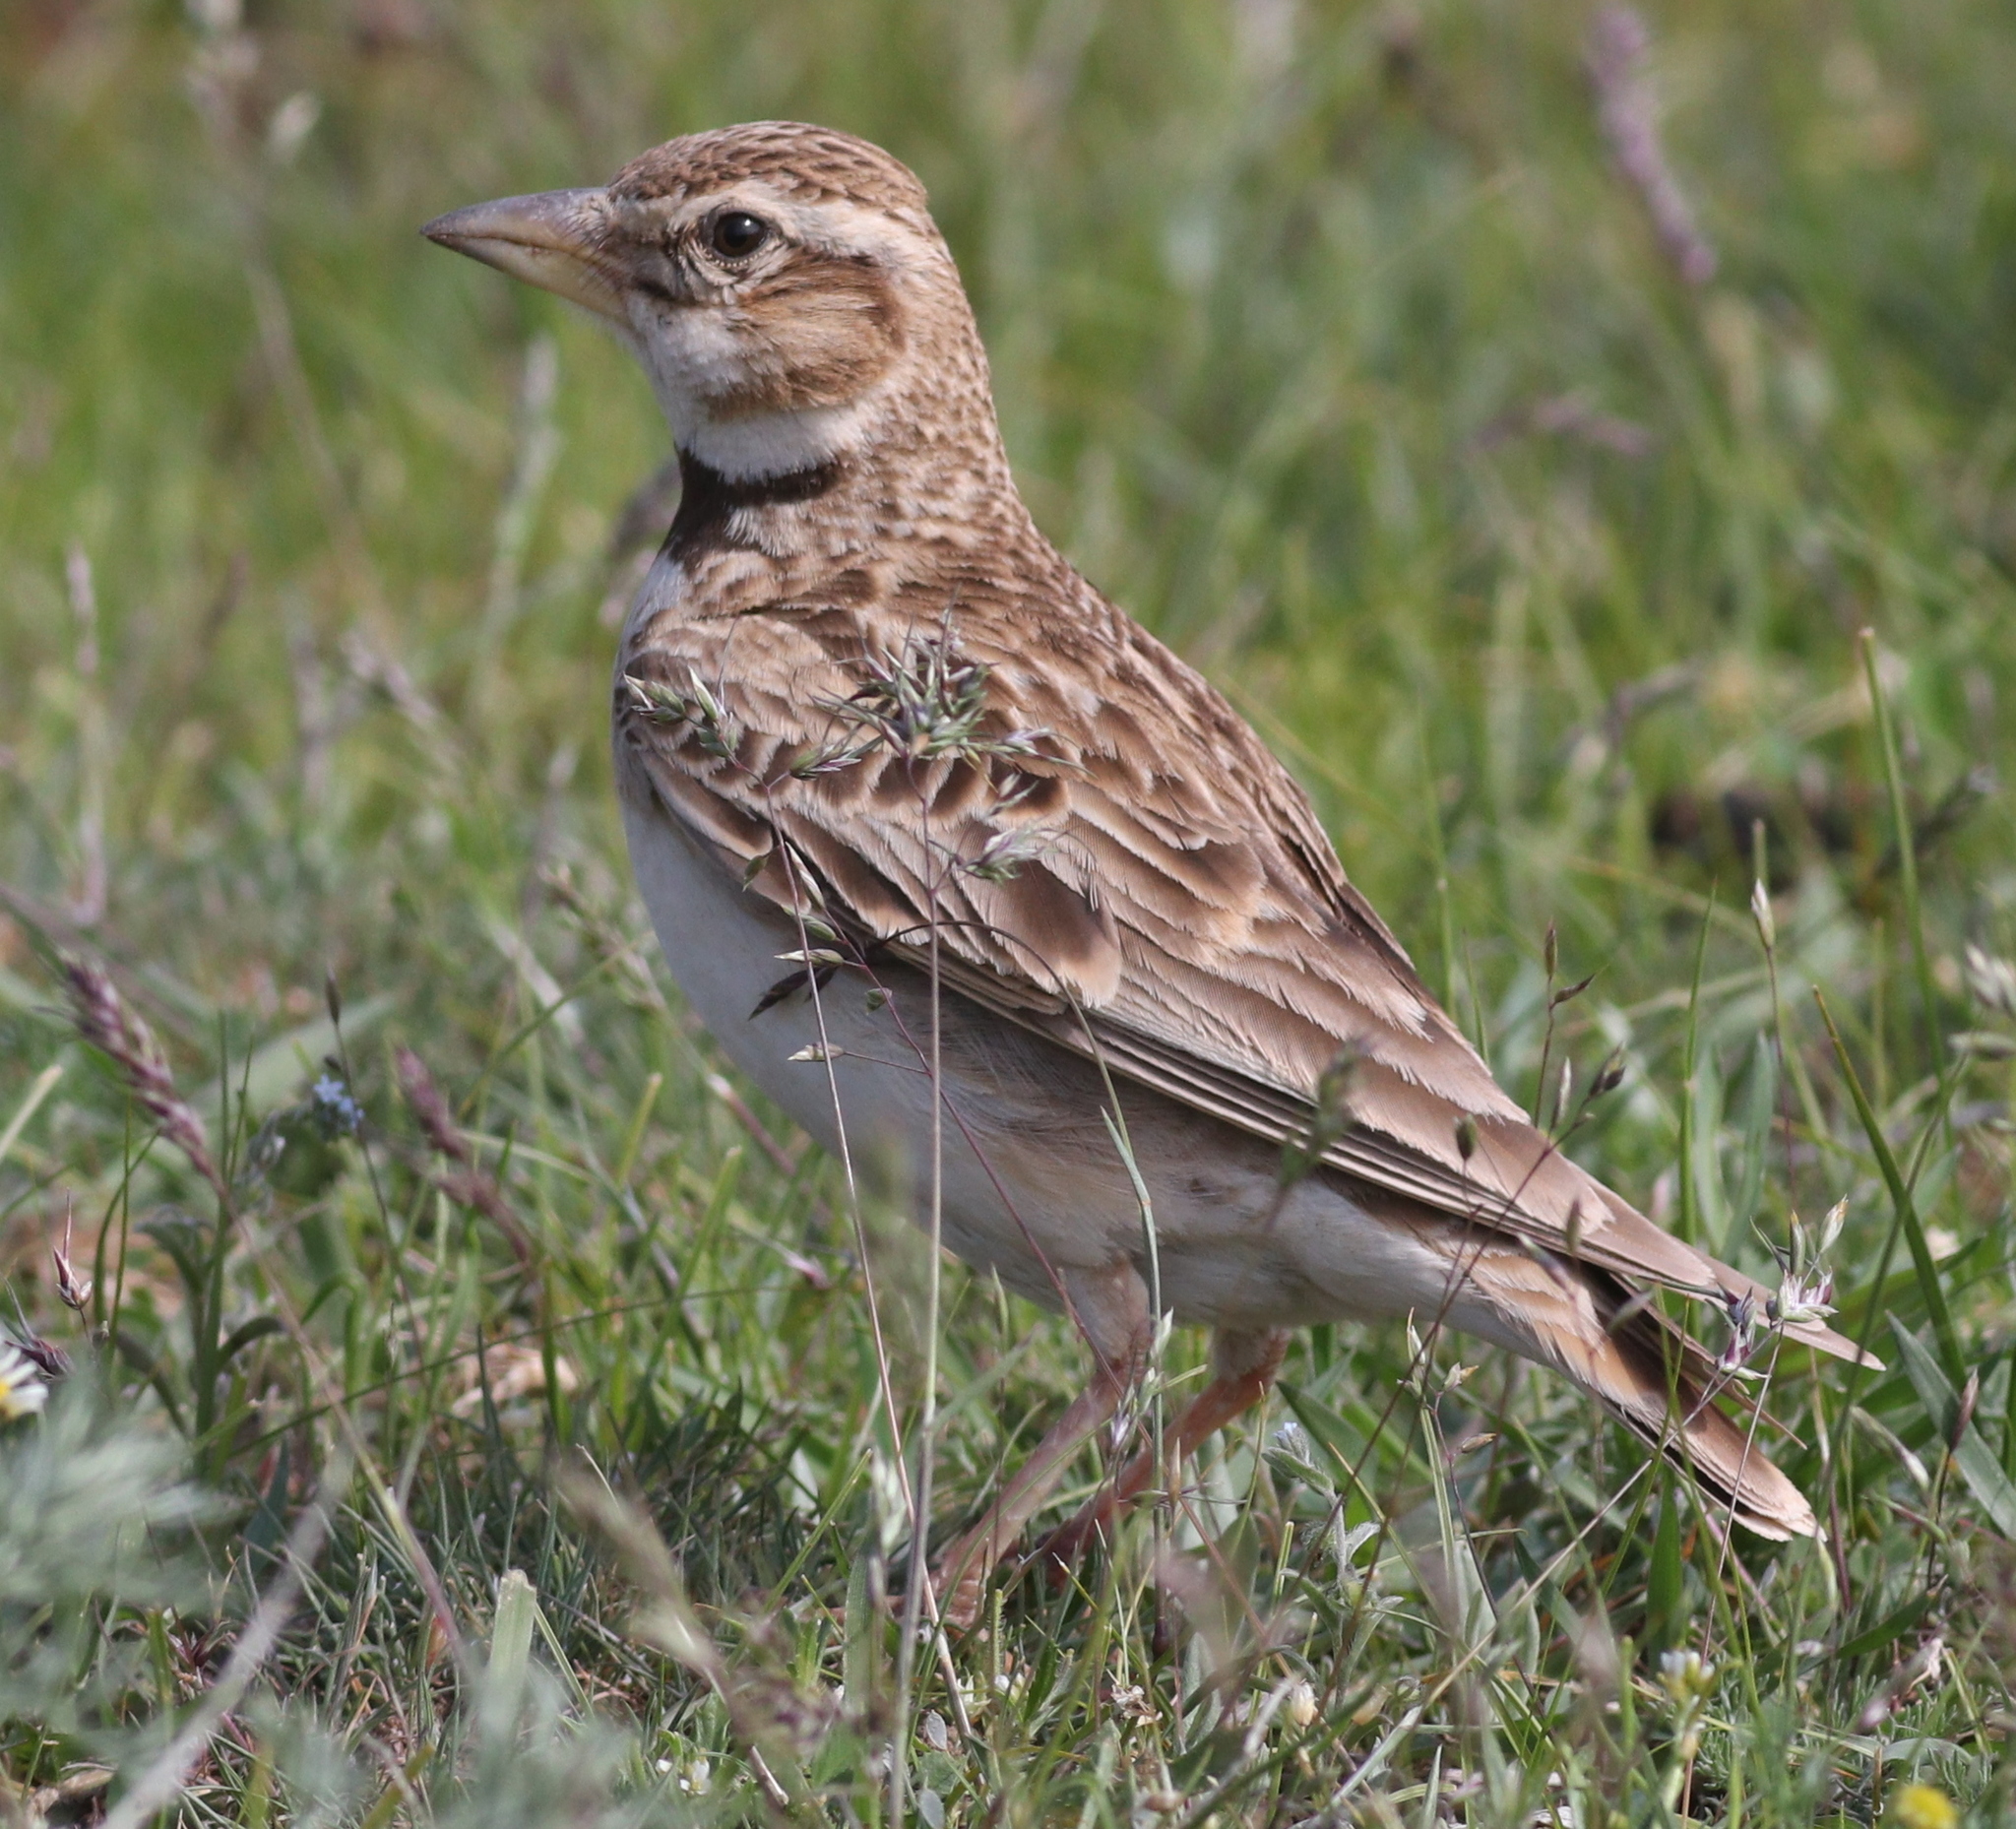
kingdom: Animalia
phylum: Chordata
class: Aves
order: Passeriformes
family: Alaudidae
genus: Melanocorypha
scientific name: Melanocorypha bimaculata
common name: Bimaculated lark
